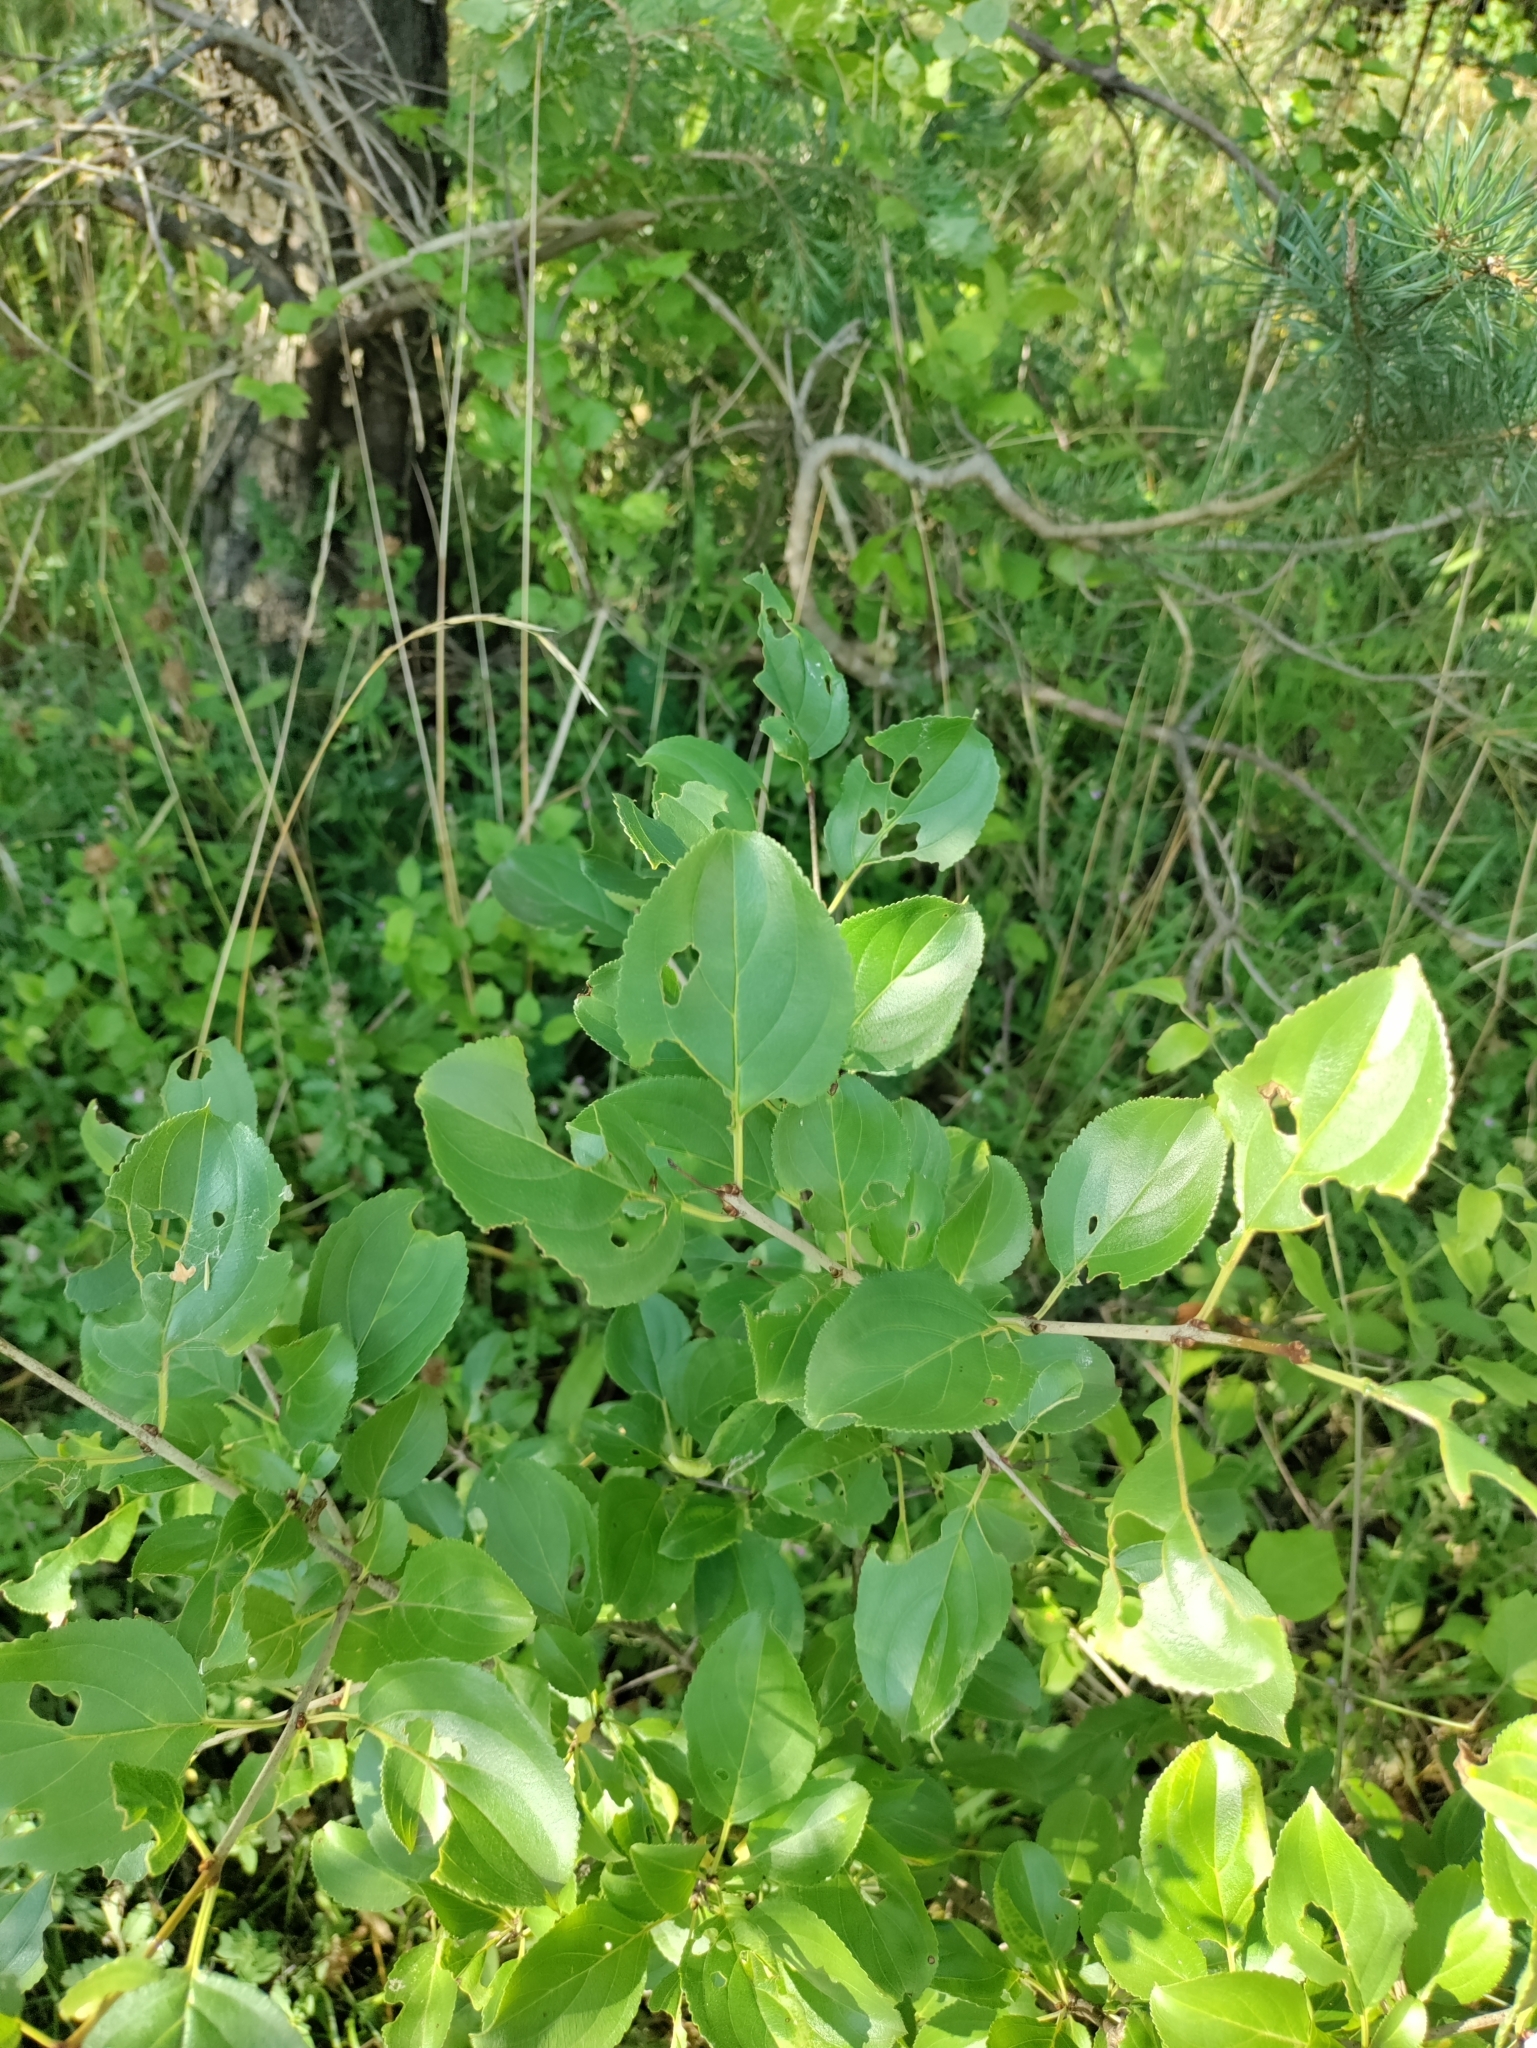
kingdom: Plantae
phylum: Tracheophyta
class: Magnoliopsida
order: Rosales
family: Rhamnaceae
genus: Rhamnus
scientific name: Rhamnus cathartica
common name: Common buckthorn
